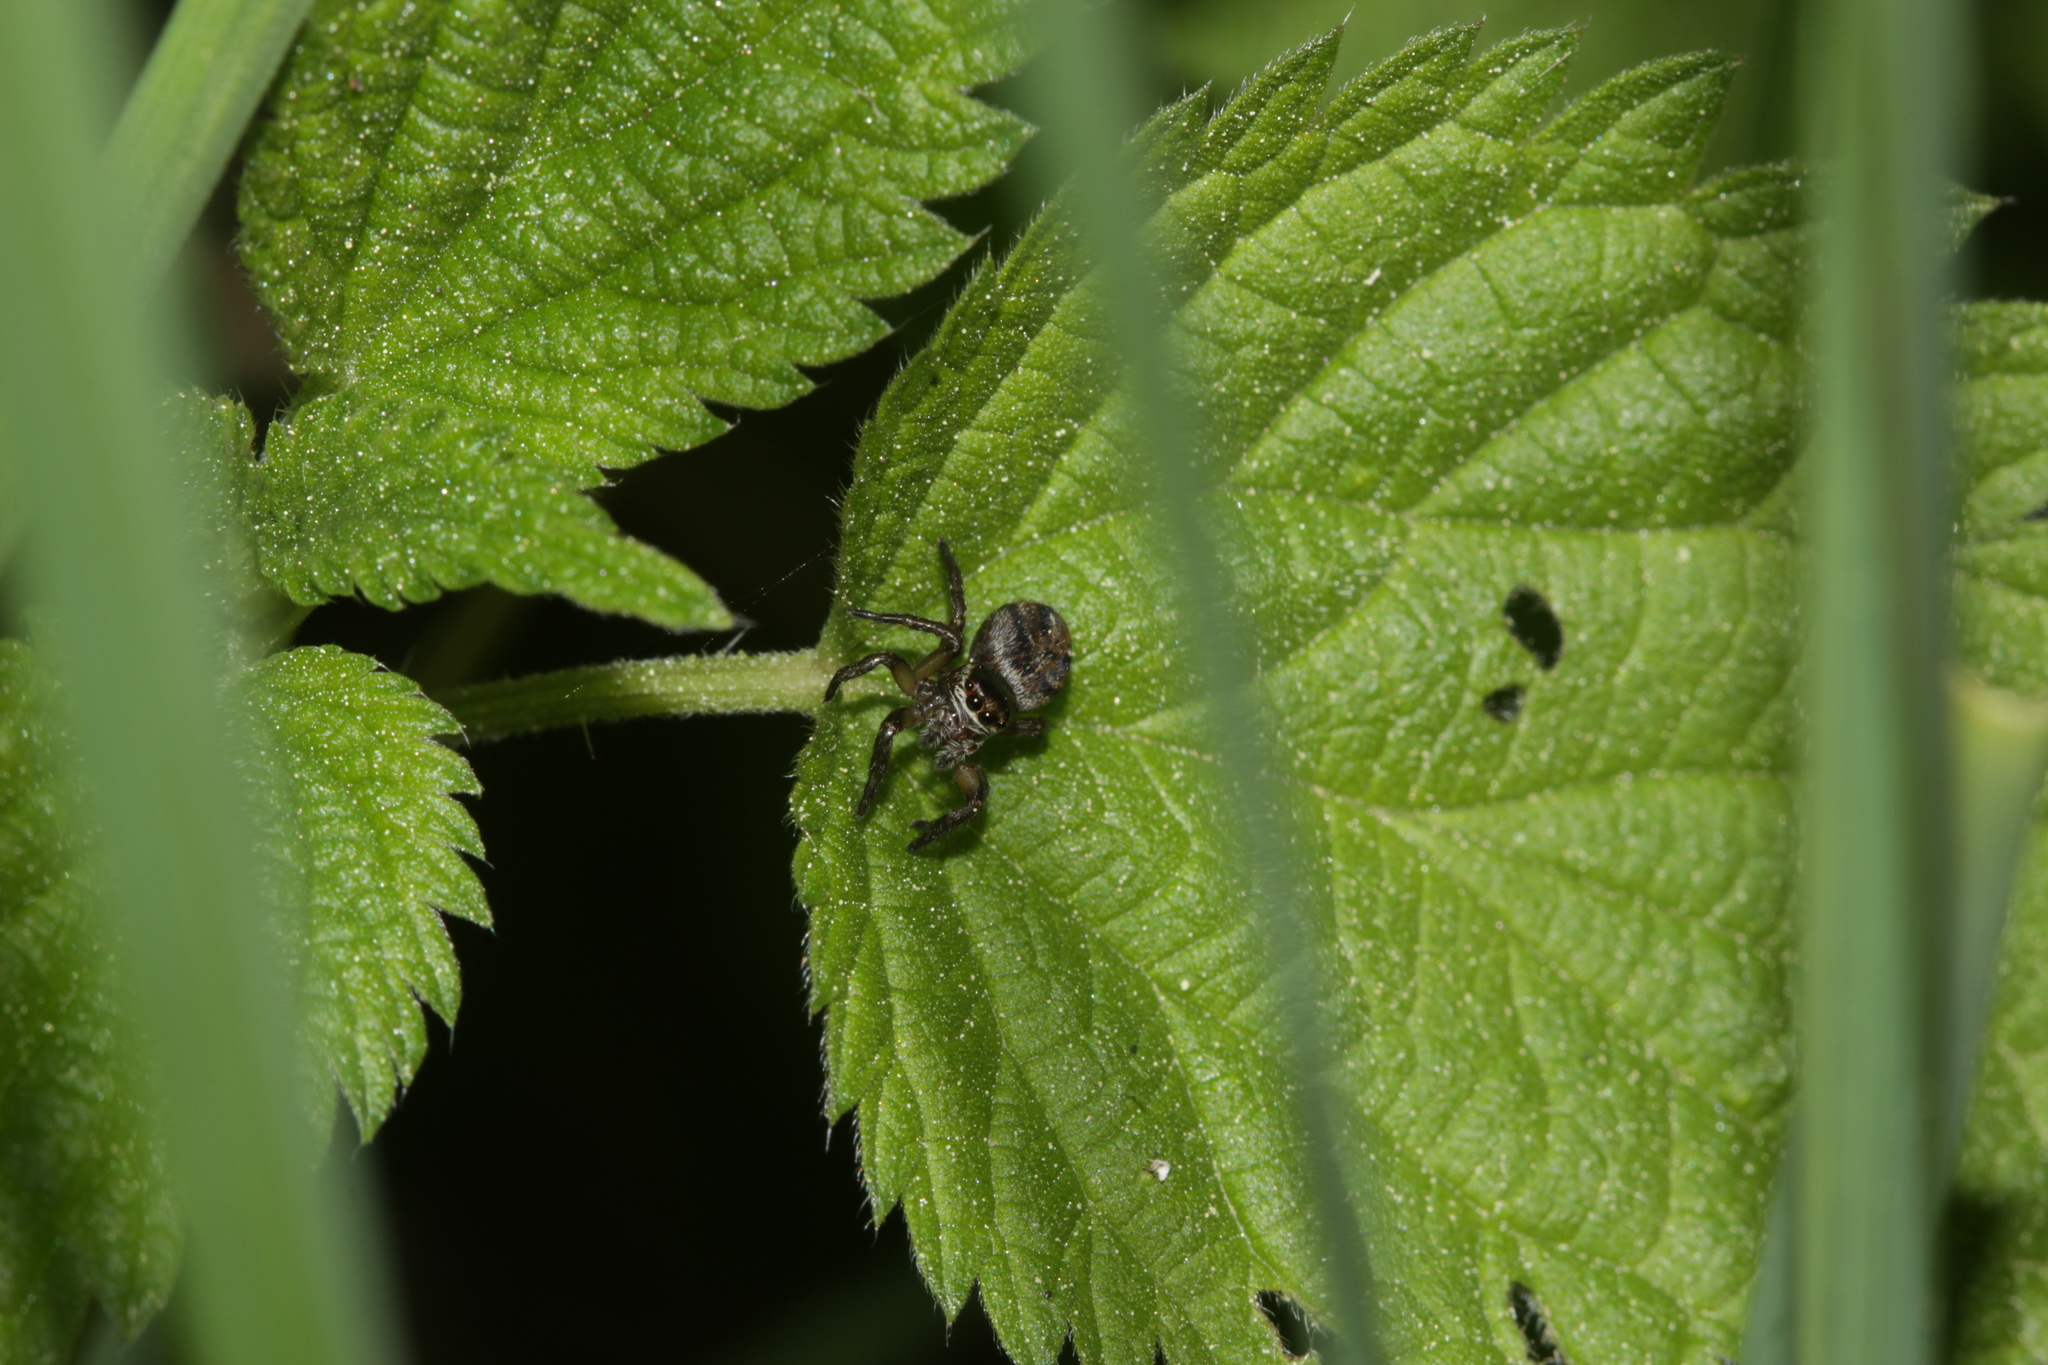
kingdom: Animalia
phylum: Arthropoda
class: Arachnida
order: Araneae
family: Salticidae
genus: Evarcha
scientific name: Evarcha arcuata
